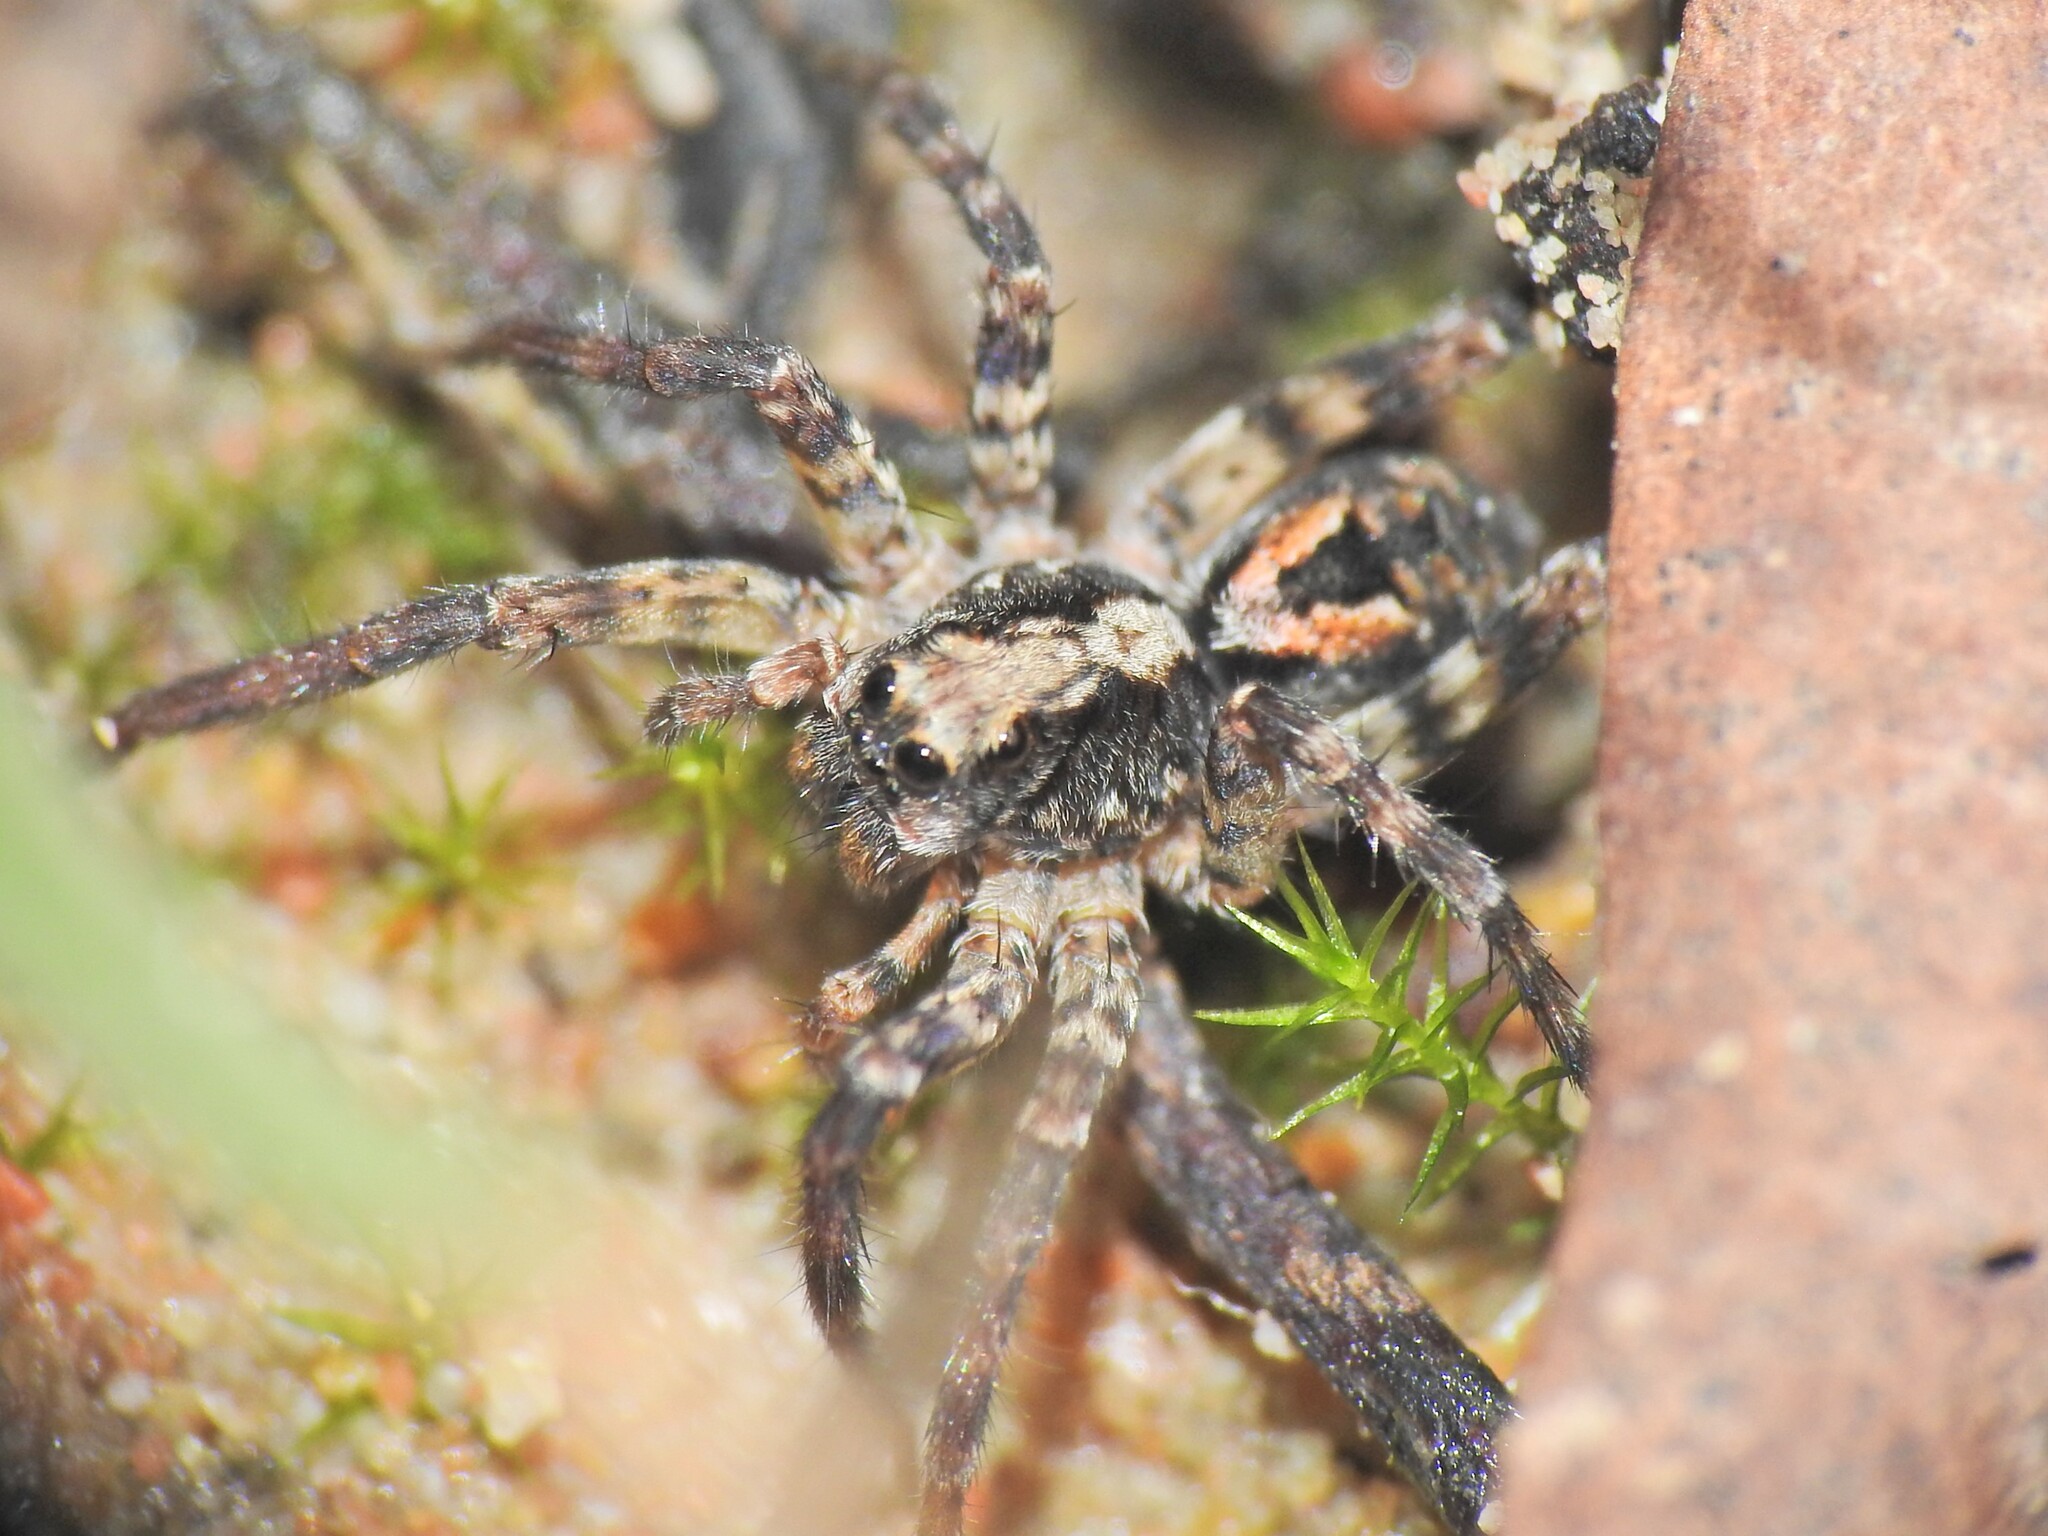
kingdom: Animalia
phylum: Arthropoda
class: Arachnida
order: Araneae
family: Lycosidae
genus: Venator
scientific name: Venator spenceri
